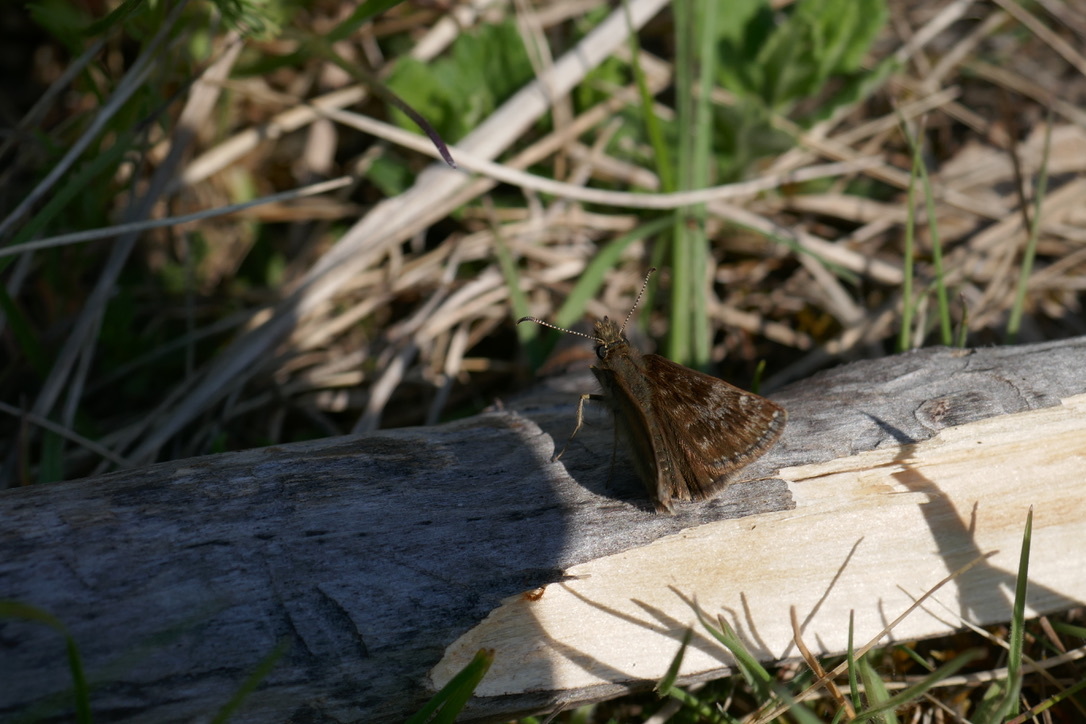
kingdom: Animalia
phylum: Arthropoda
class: Insecta
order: Lepidoptera
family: Hesperiidae
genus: Erynnis
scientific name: Erynnis tages
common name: Dingy skipper
